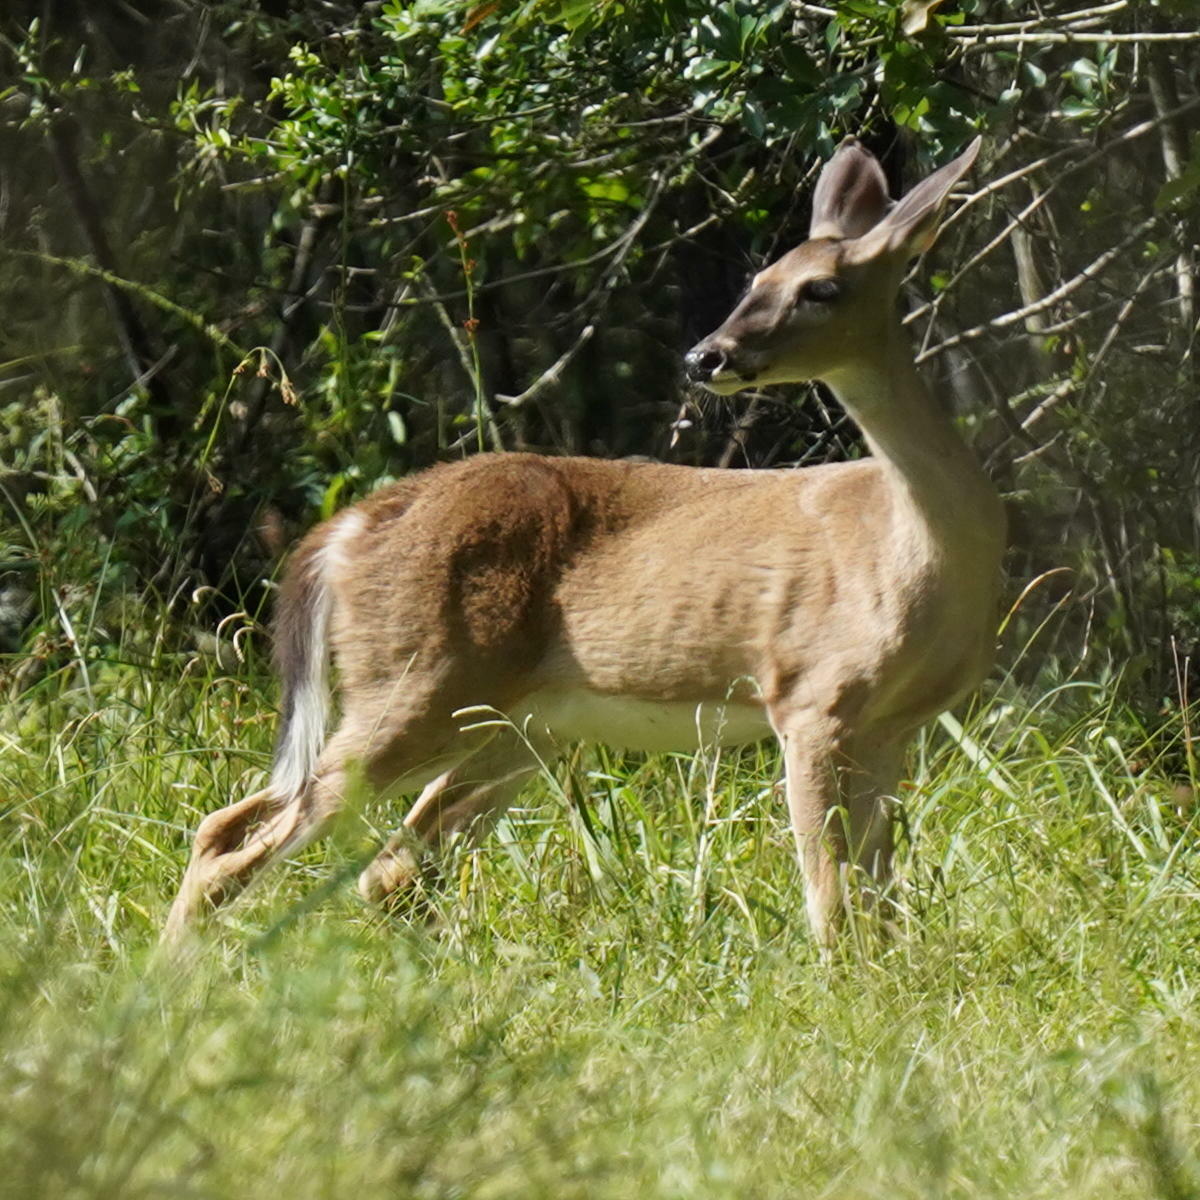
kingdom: Animalia
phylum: Chordata
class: Mammalia
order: Artiodactyla
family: Cervidae
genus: Odocoileus
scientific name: Odocoileus virginianus
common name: White-tailed deer
